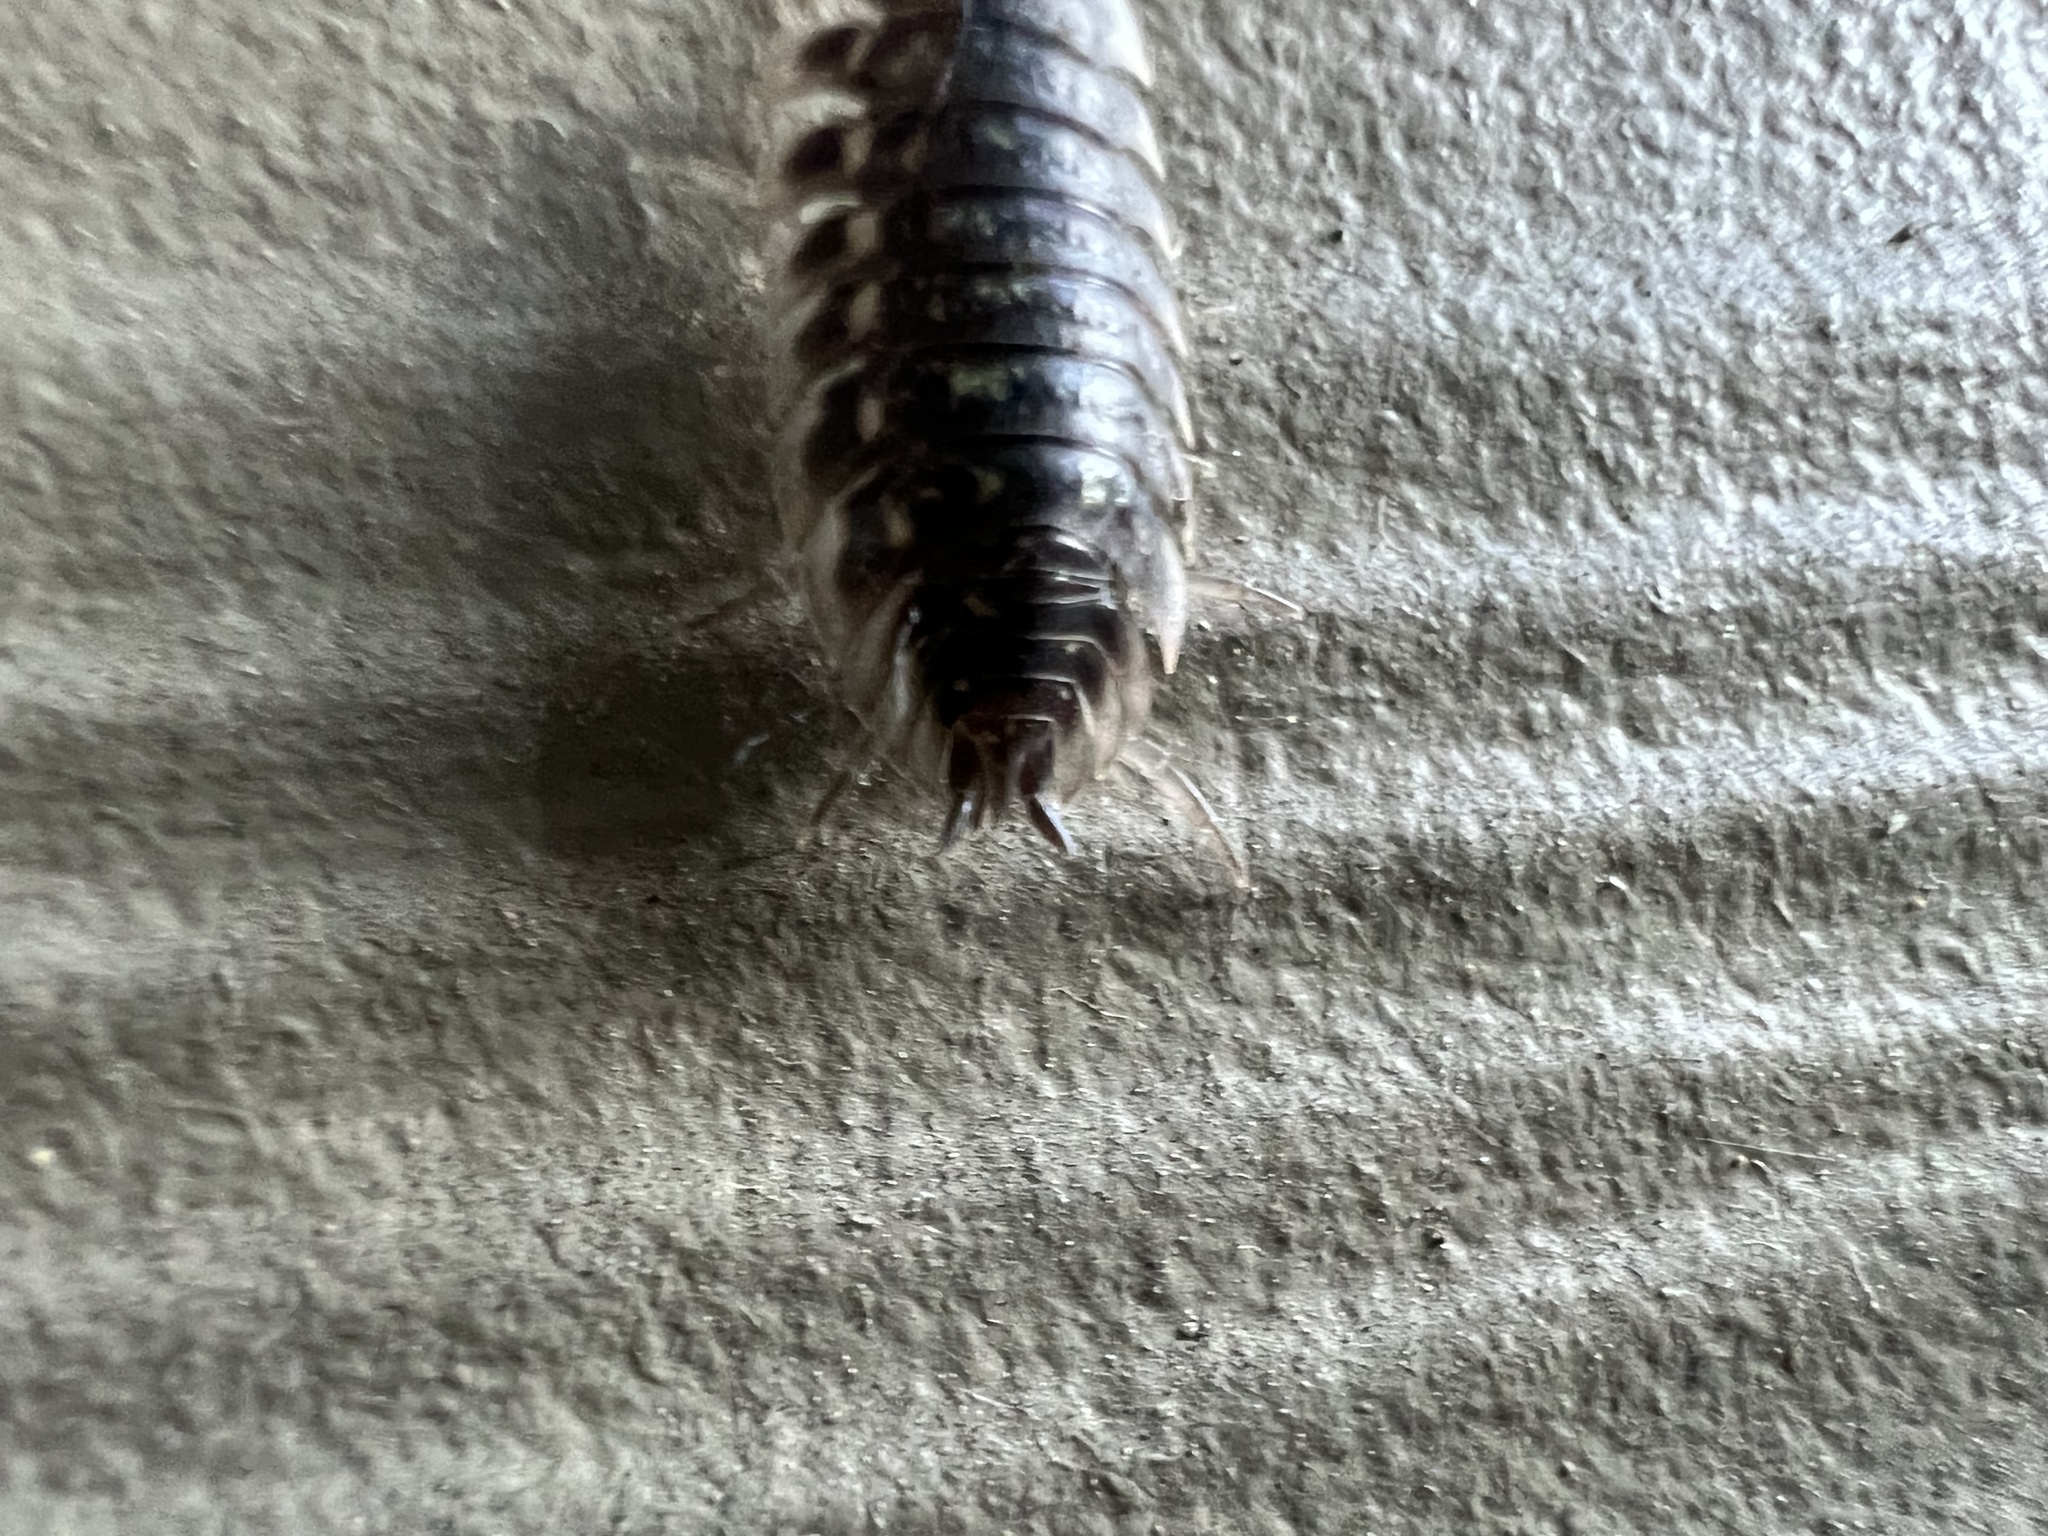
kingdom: Animalia
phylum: Arthropoda
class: Malacostraca
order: Isopoda
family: Oniscidae
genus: Oniscus
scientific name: Oniscus asellus
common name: Common shiny woodlouse
